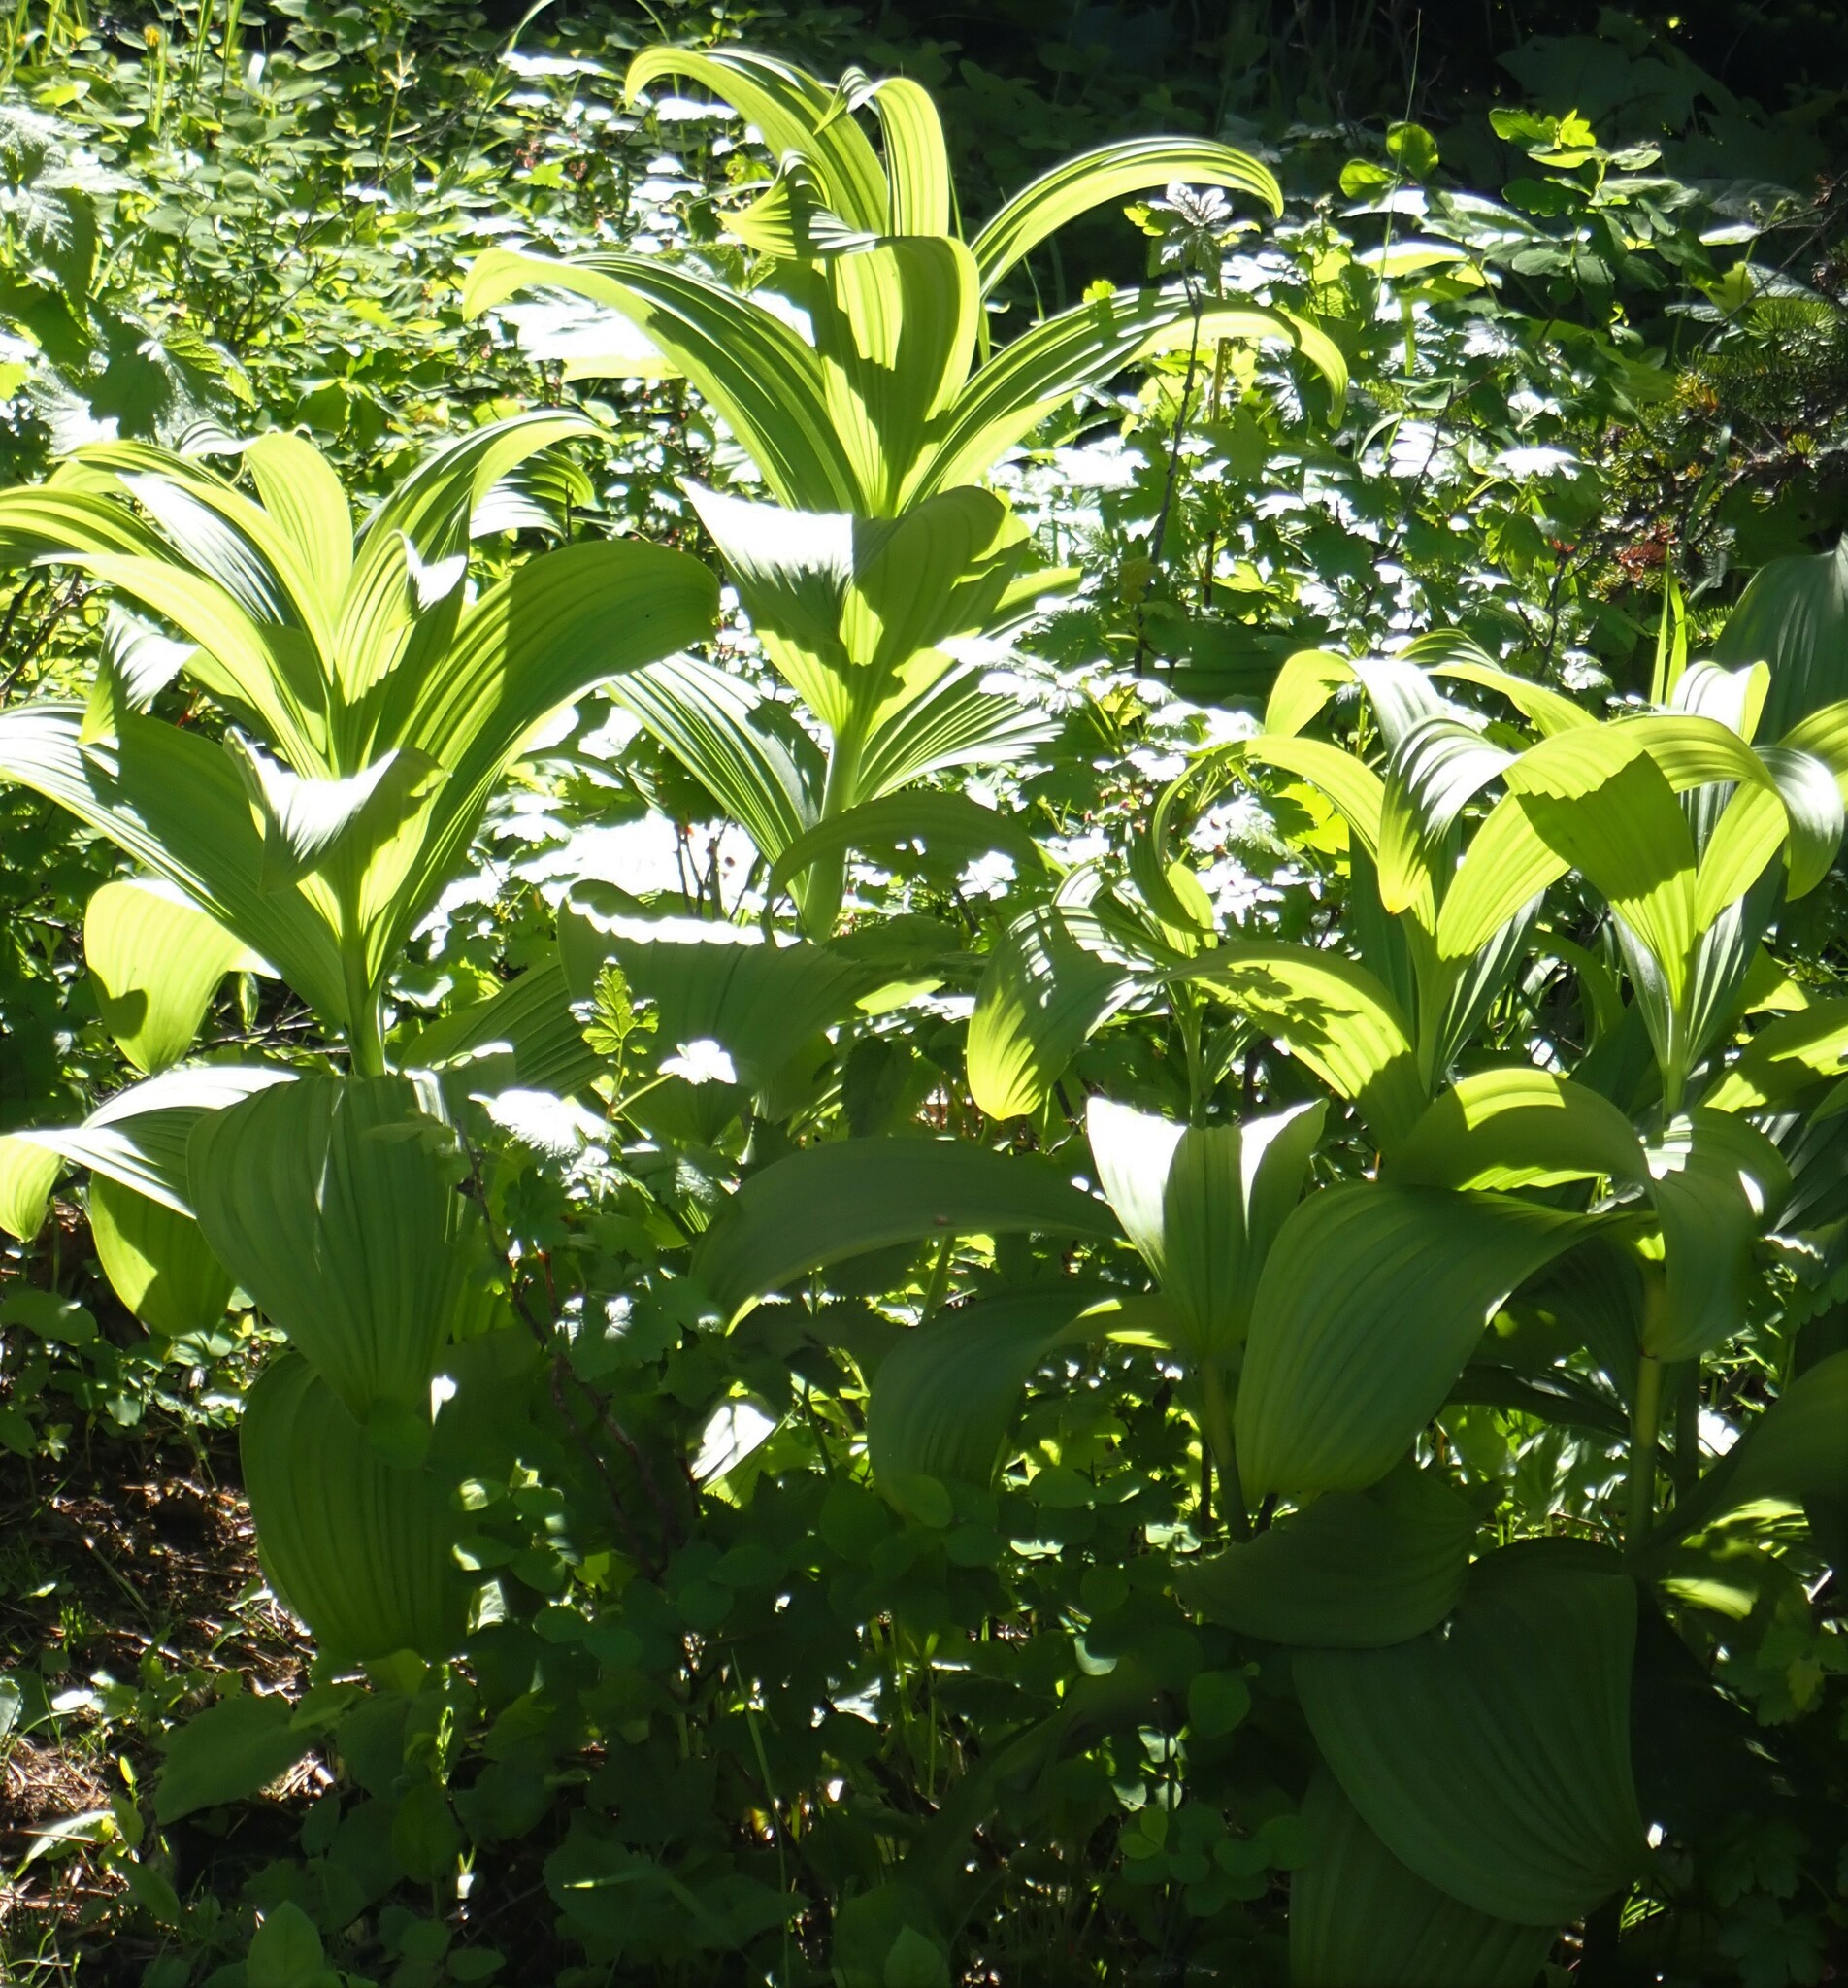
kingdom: Plantae
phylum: Tracheophyta
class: Liliopsida
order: Liliales
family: Melanthiaceae
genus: Veratrum
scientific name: Veratrum viride
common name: American false hellebore
